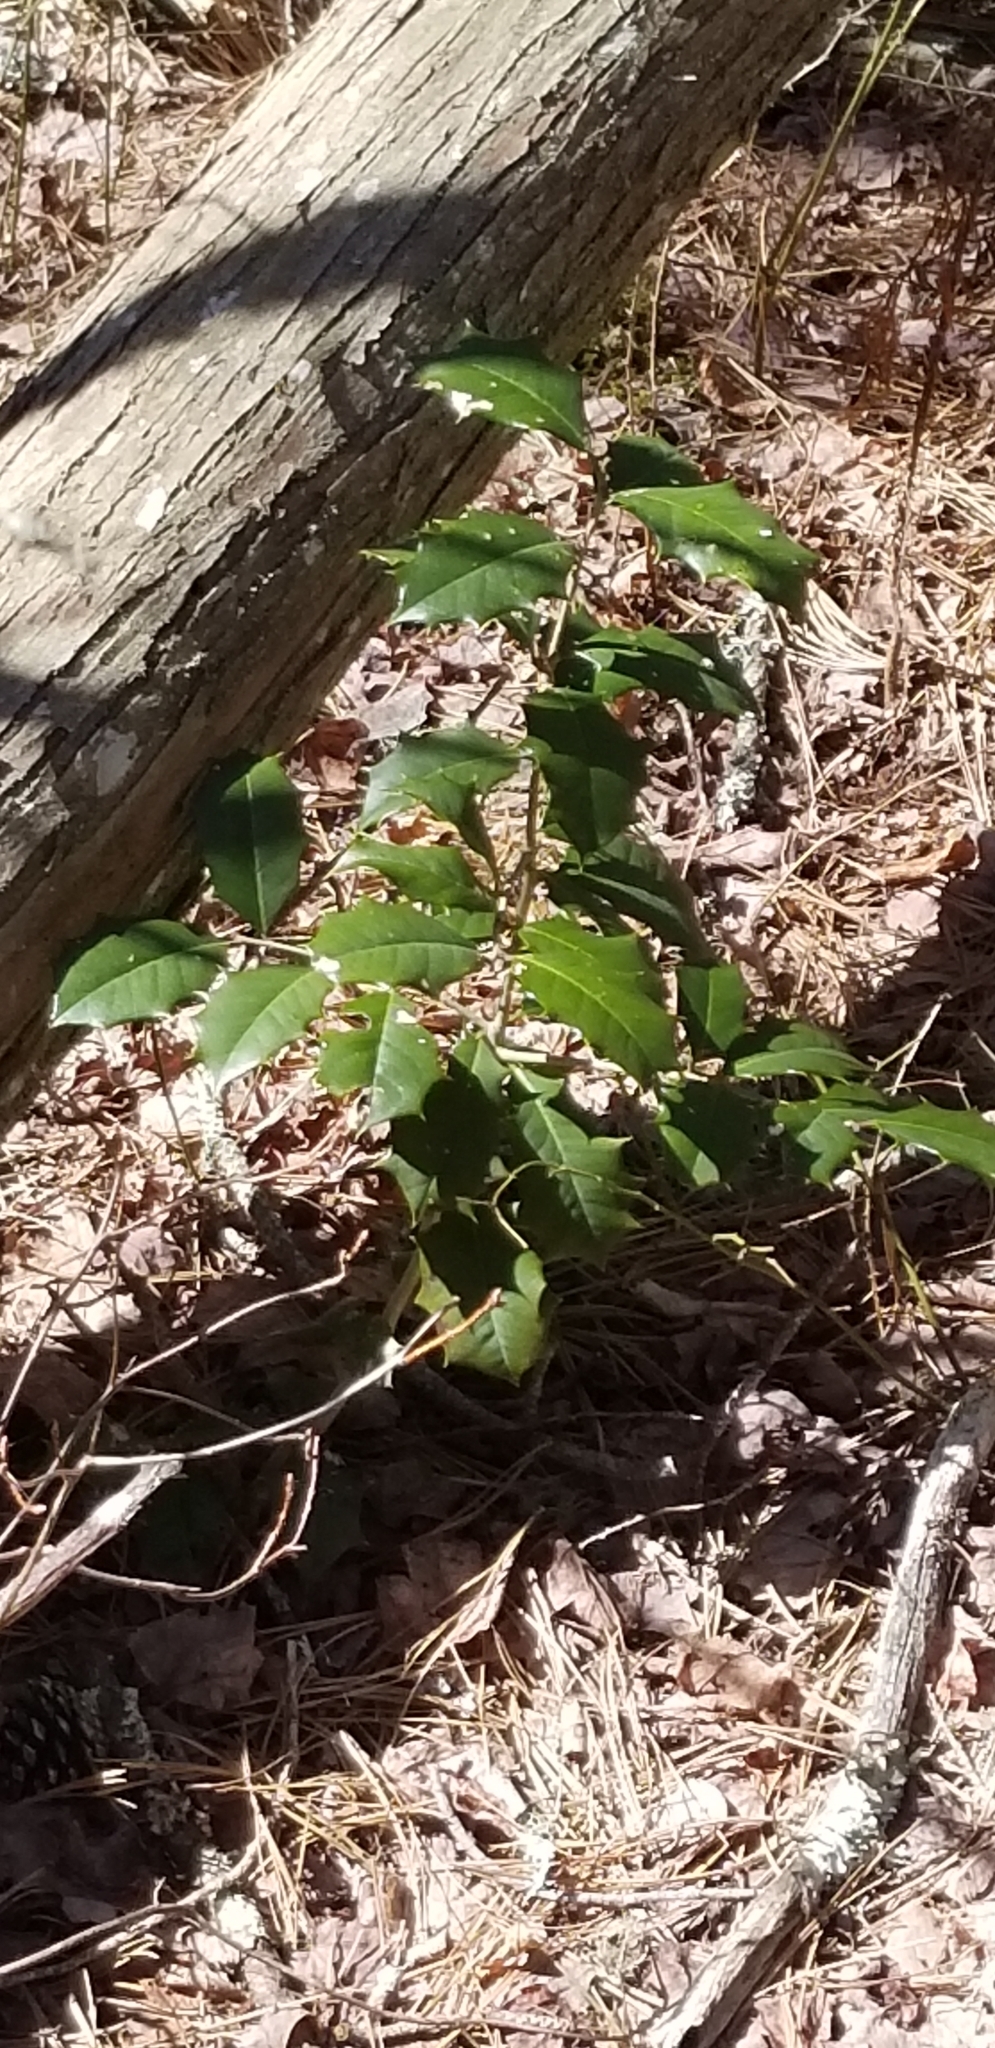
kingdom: Plantae
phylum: Tracheophyta
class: Magnoliopsida
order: Aquifoliales
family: Aquifoliaceae
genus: Ilex
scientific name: Ilex opaca
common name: American holly
